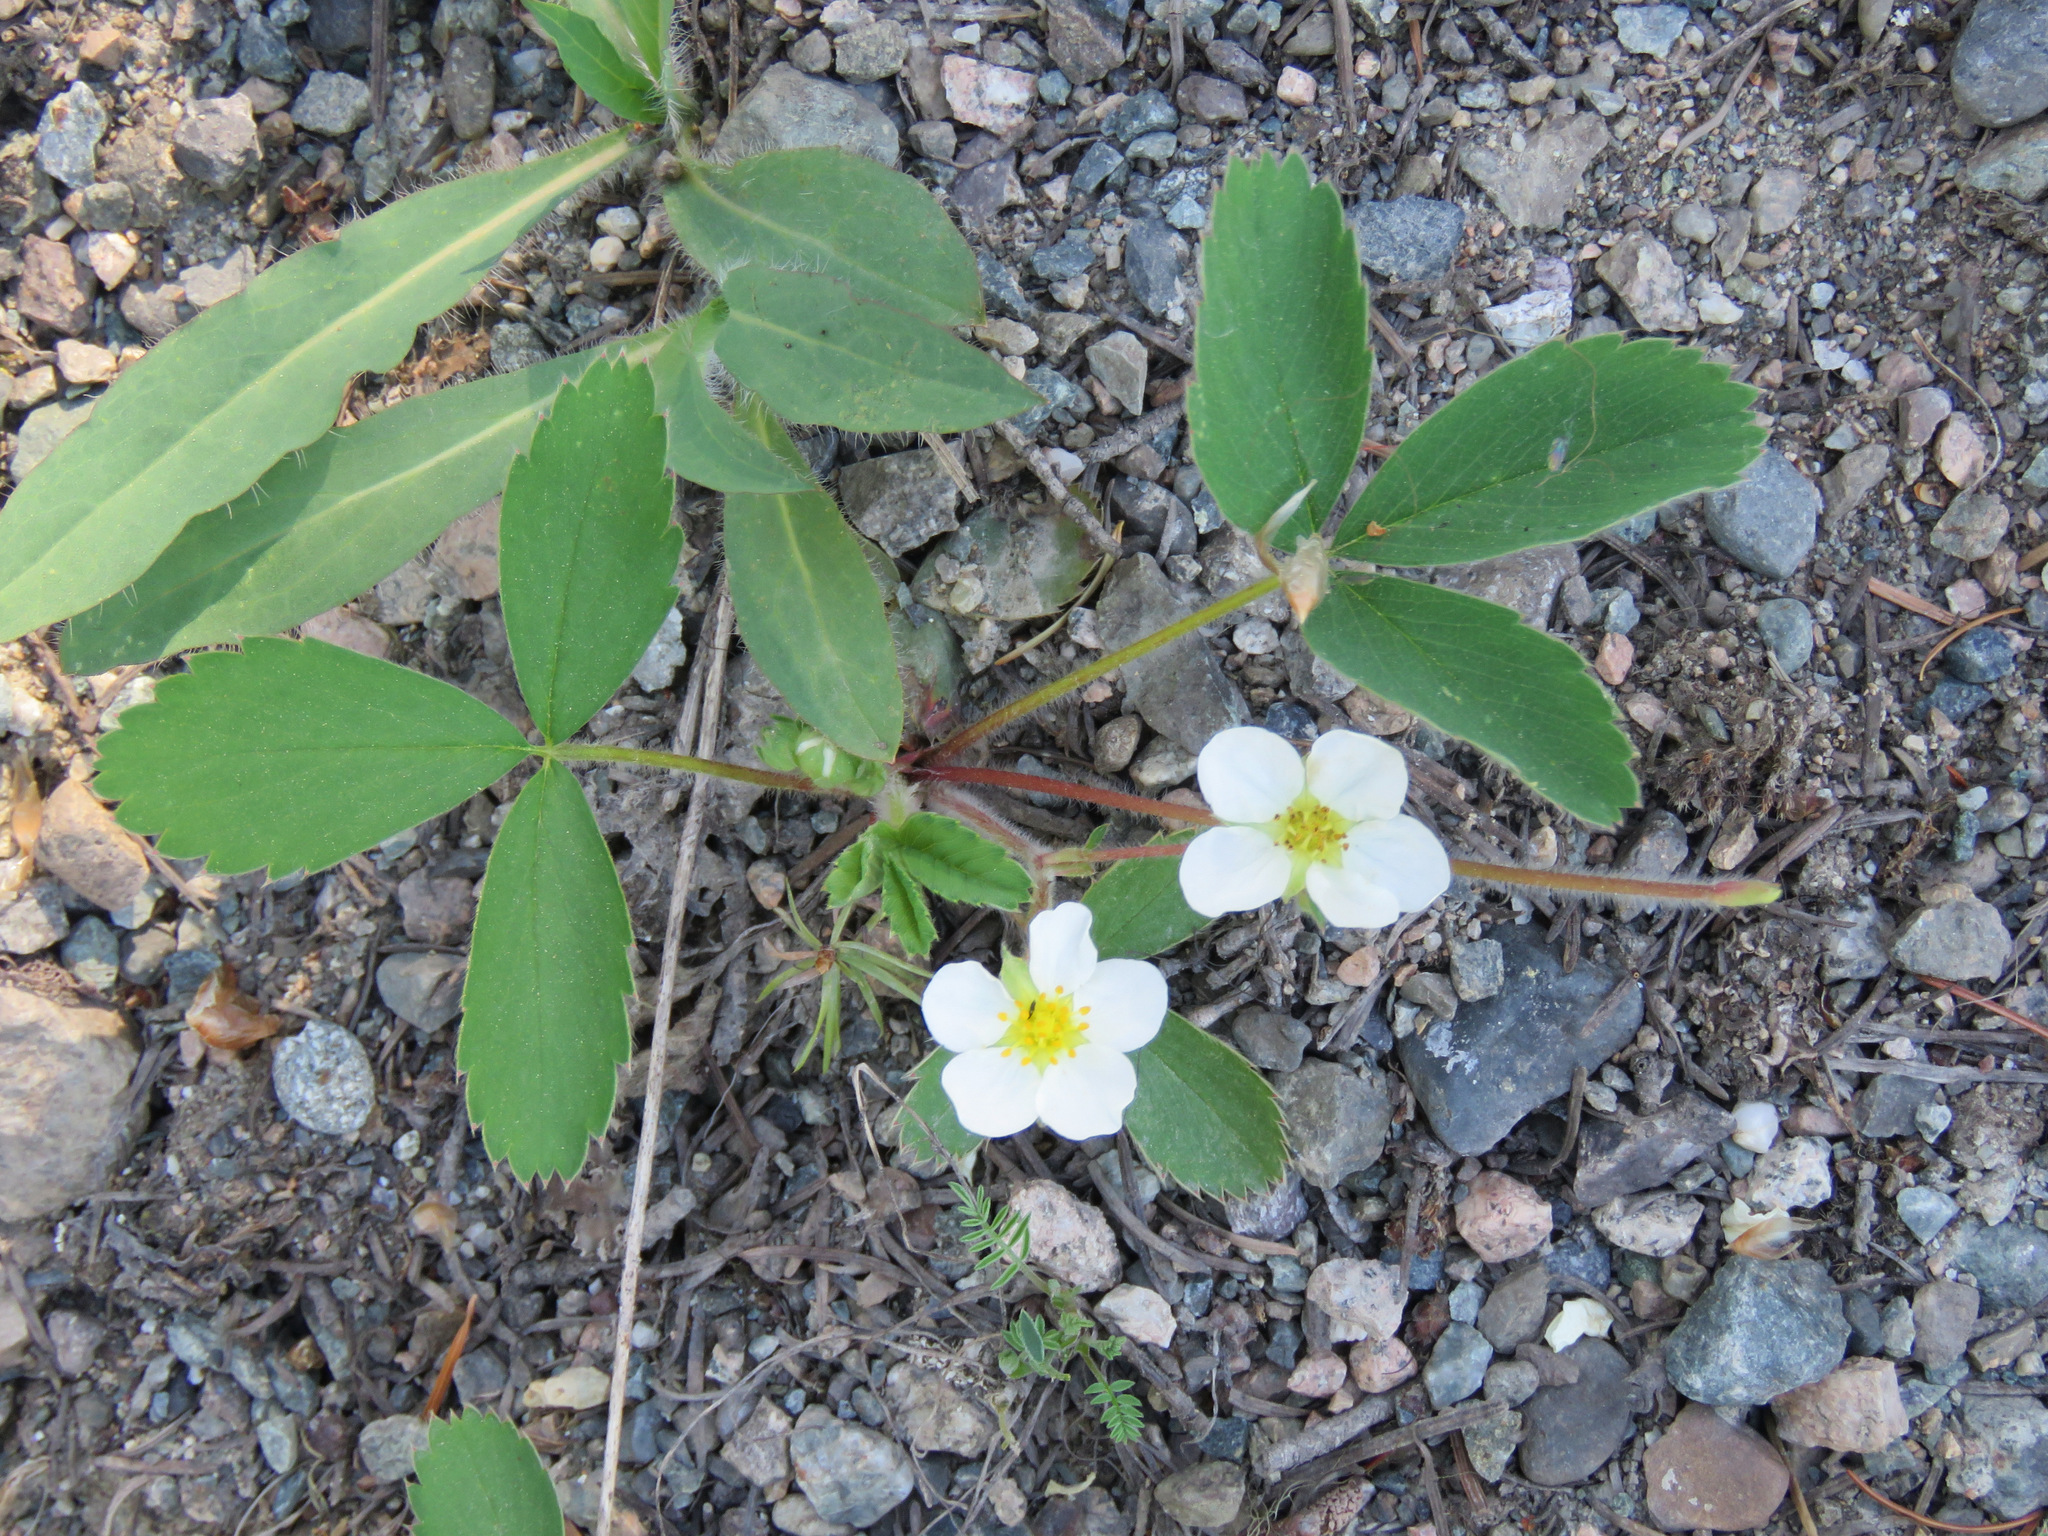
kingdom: Plantae
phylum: Tracheophyta
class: Magnoliopsida
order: Rosales
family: Rosaceae
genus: Fragaria
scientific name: Fragaria virginiana
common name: Thickleaved wild strawberry
